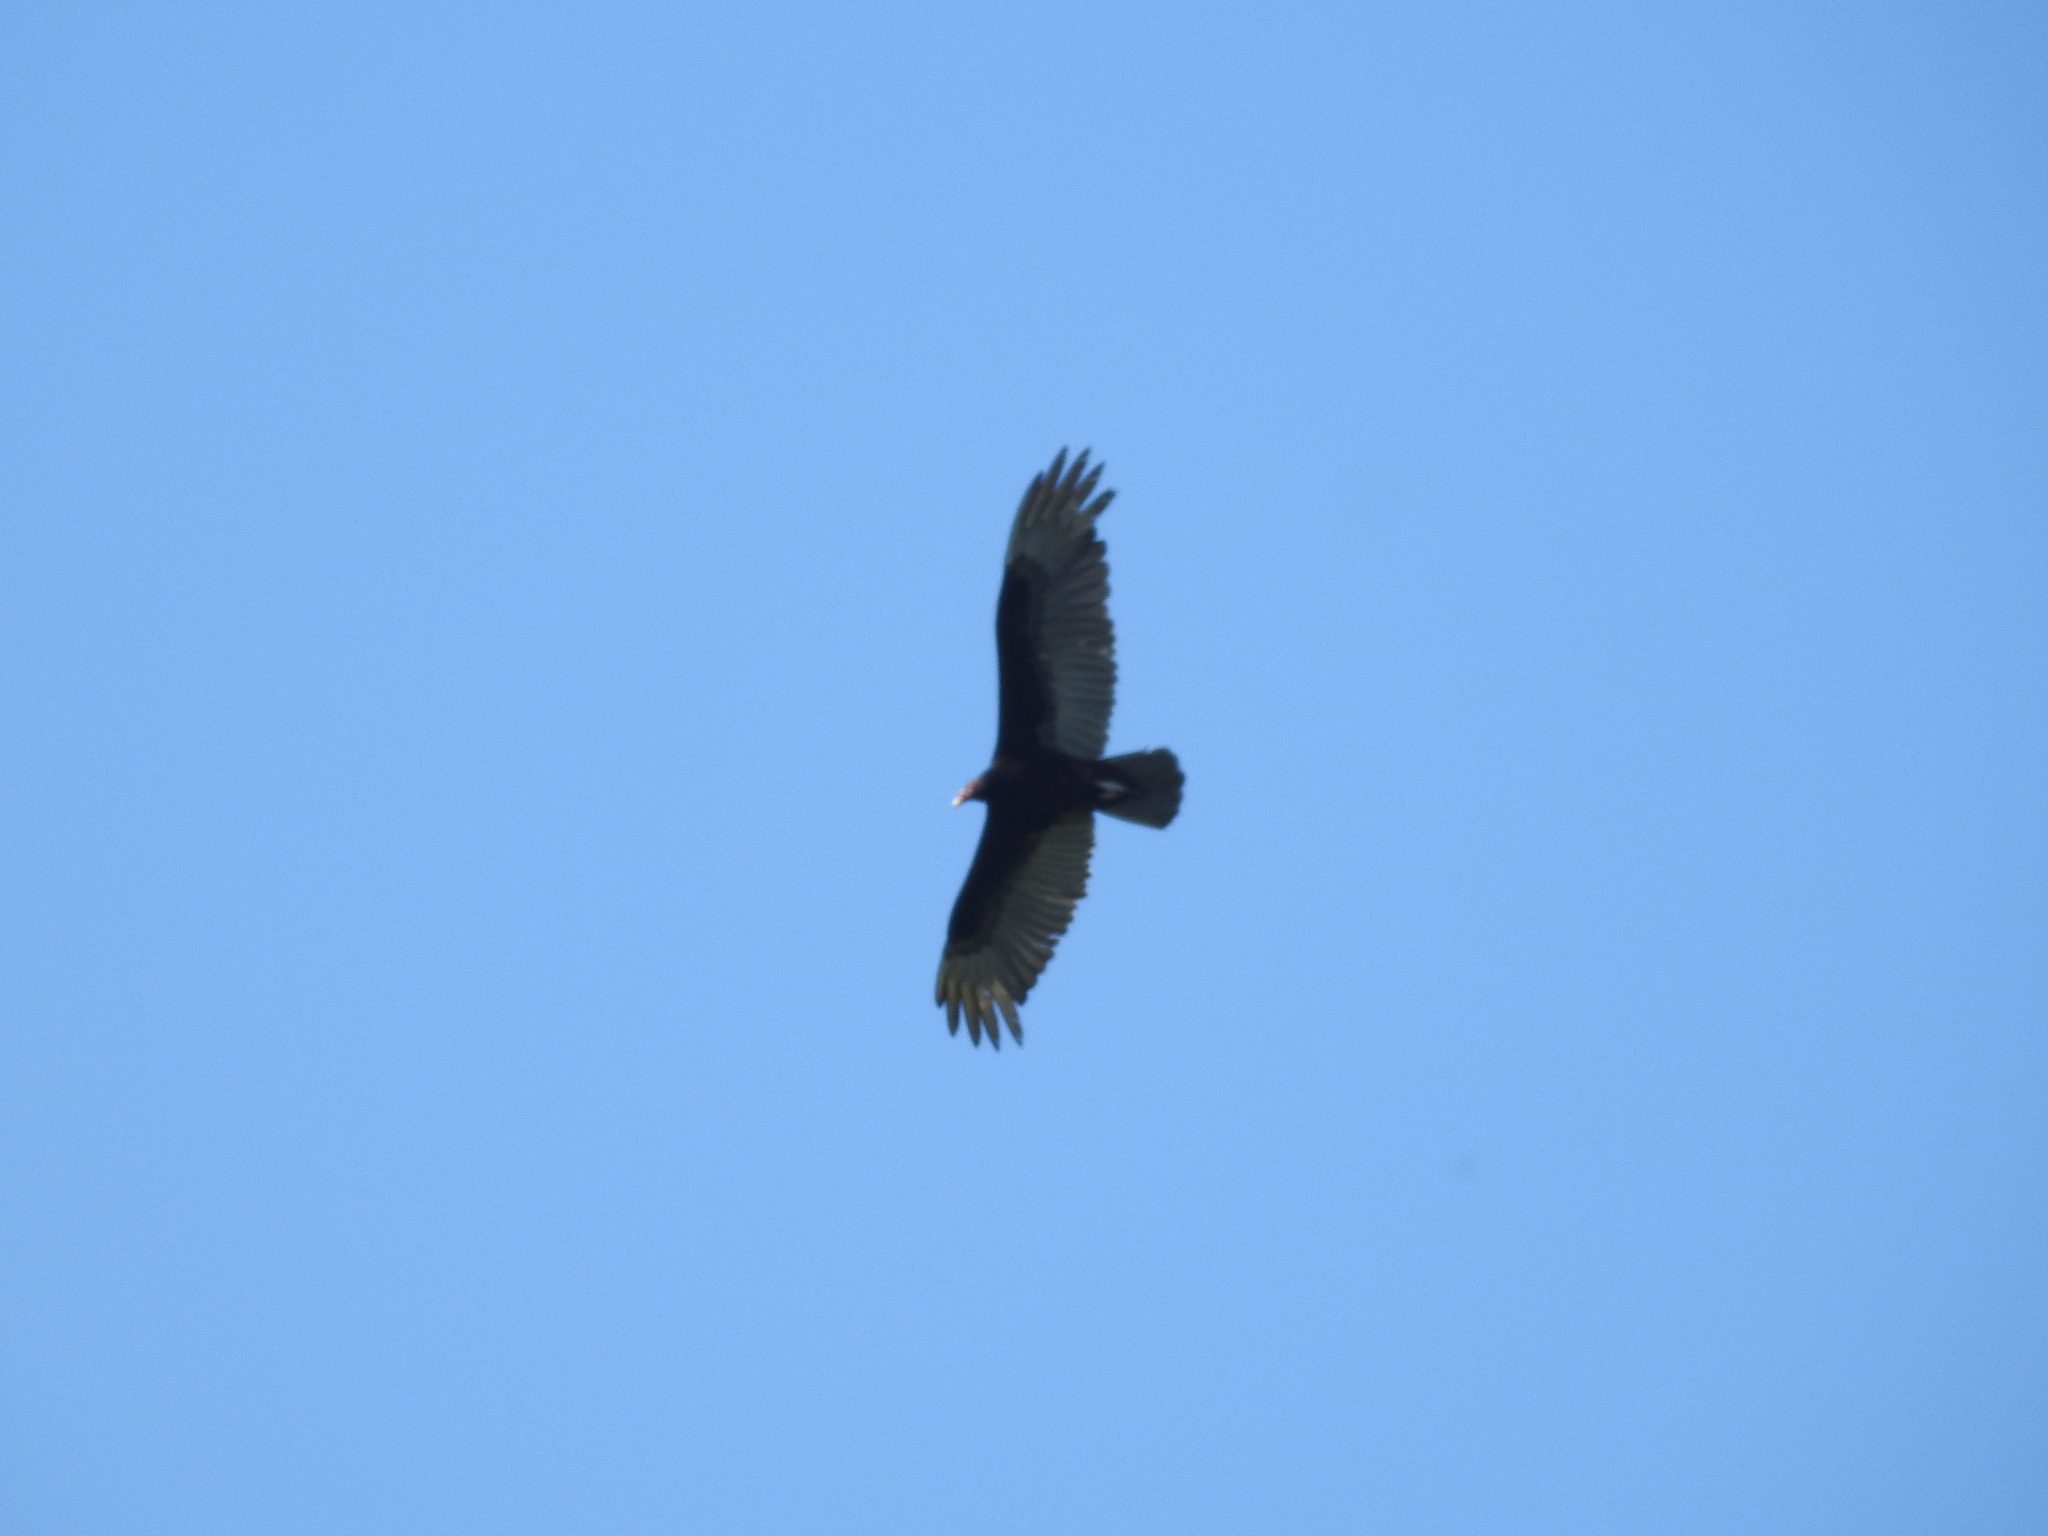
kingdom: Animalia
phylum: Chordata
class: Aves
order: Accipitriformes
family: Cathartidae
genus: Cathartes
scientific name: Cathartes aura
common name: Turkey vulture
